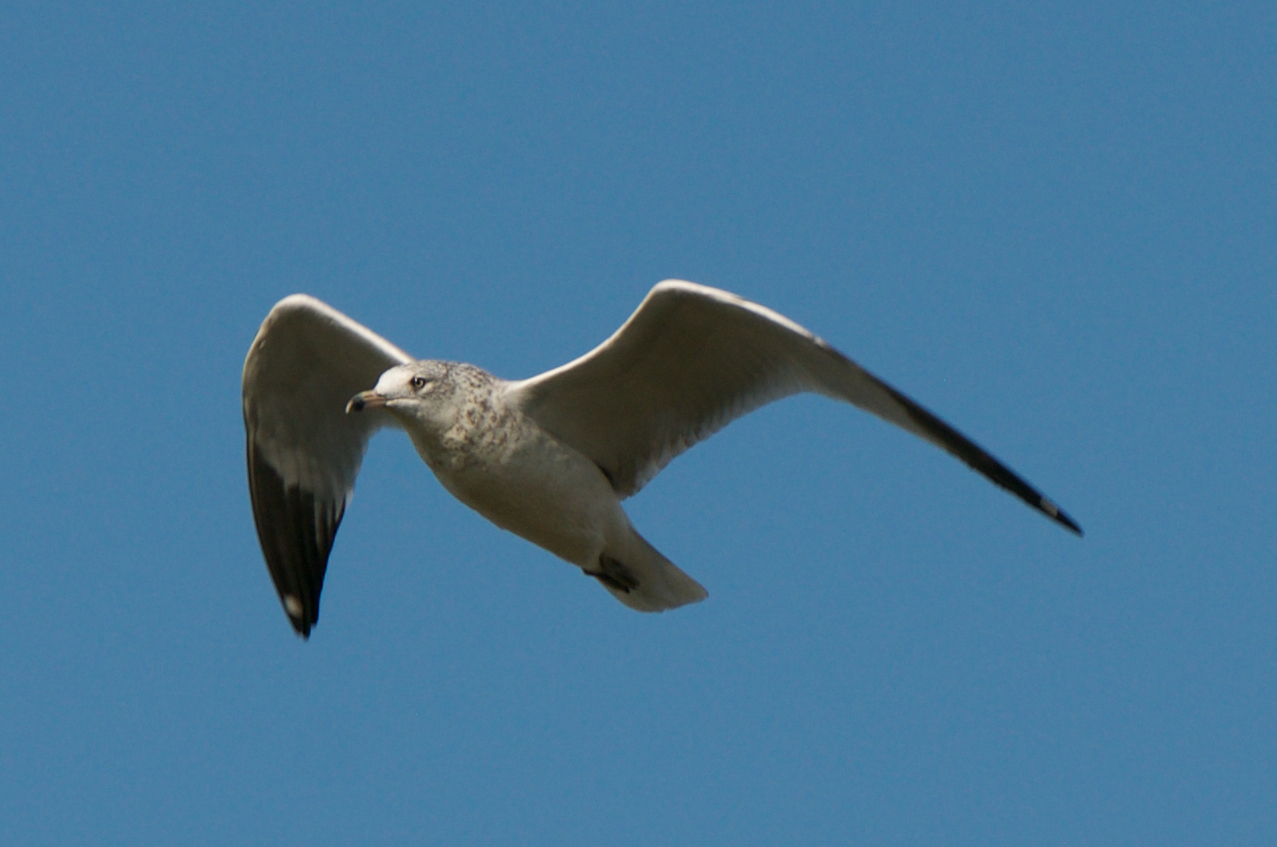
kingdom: Animalia
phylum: Chordata
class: Aves
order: Charadriiformes
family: Laridae
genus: Larus
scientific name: Larus delawarensis
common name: Ring-billed gull
